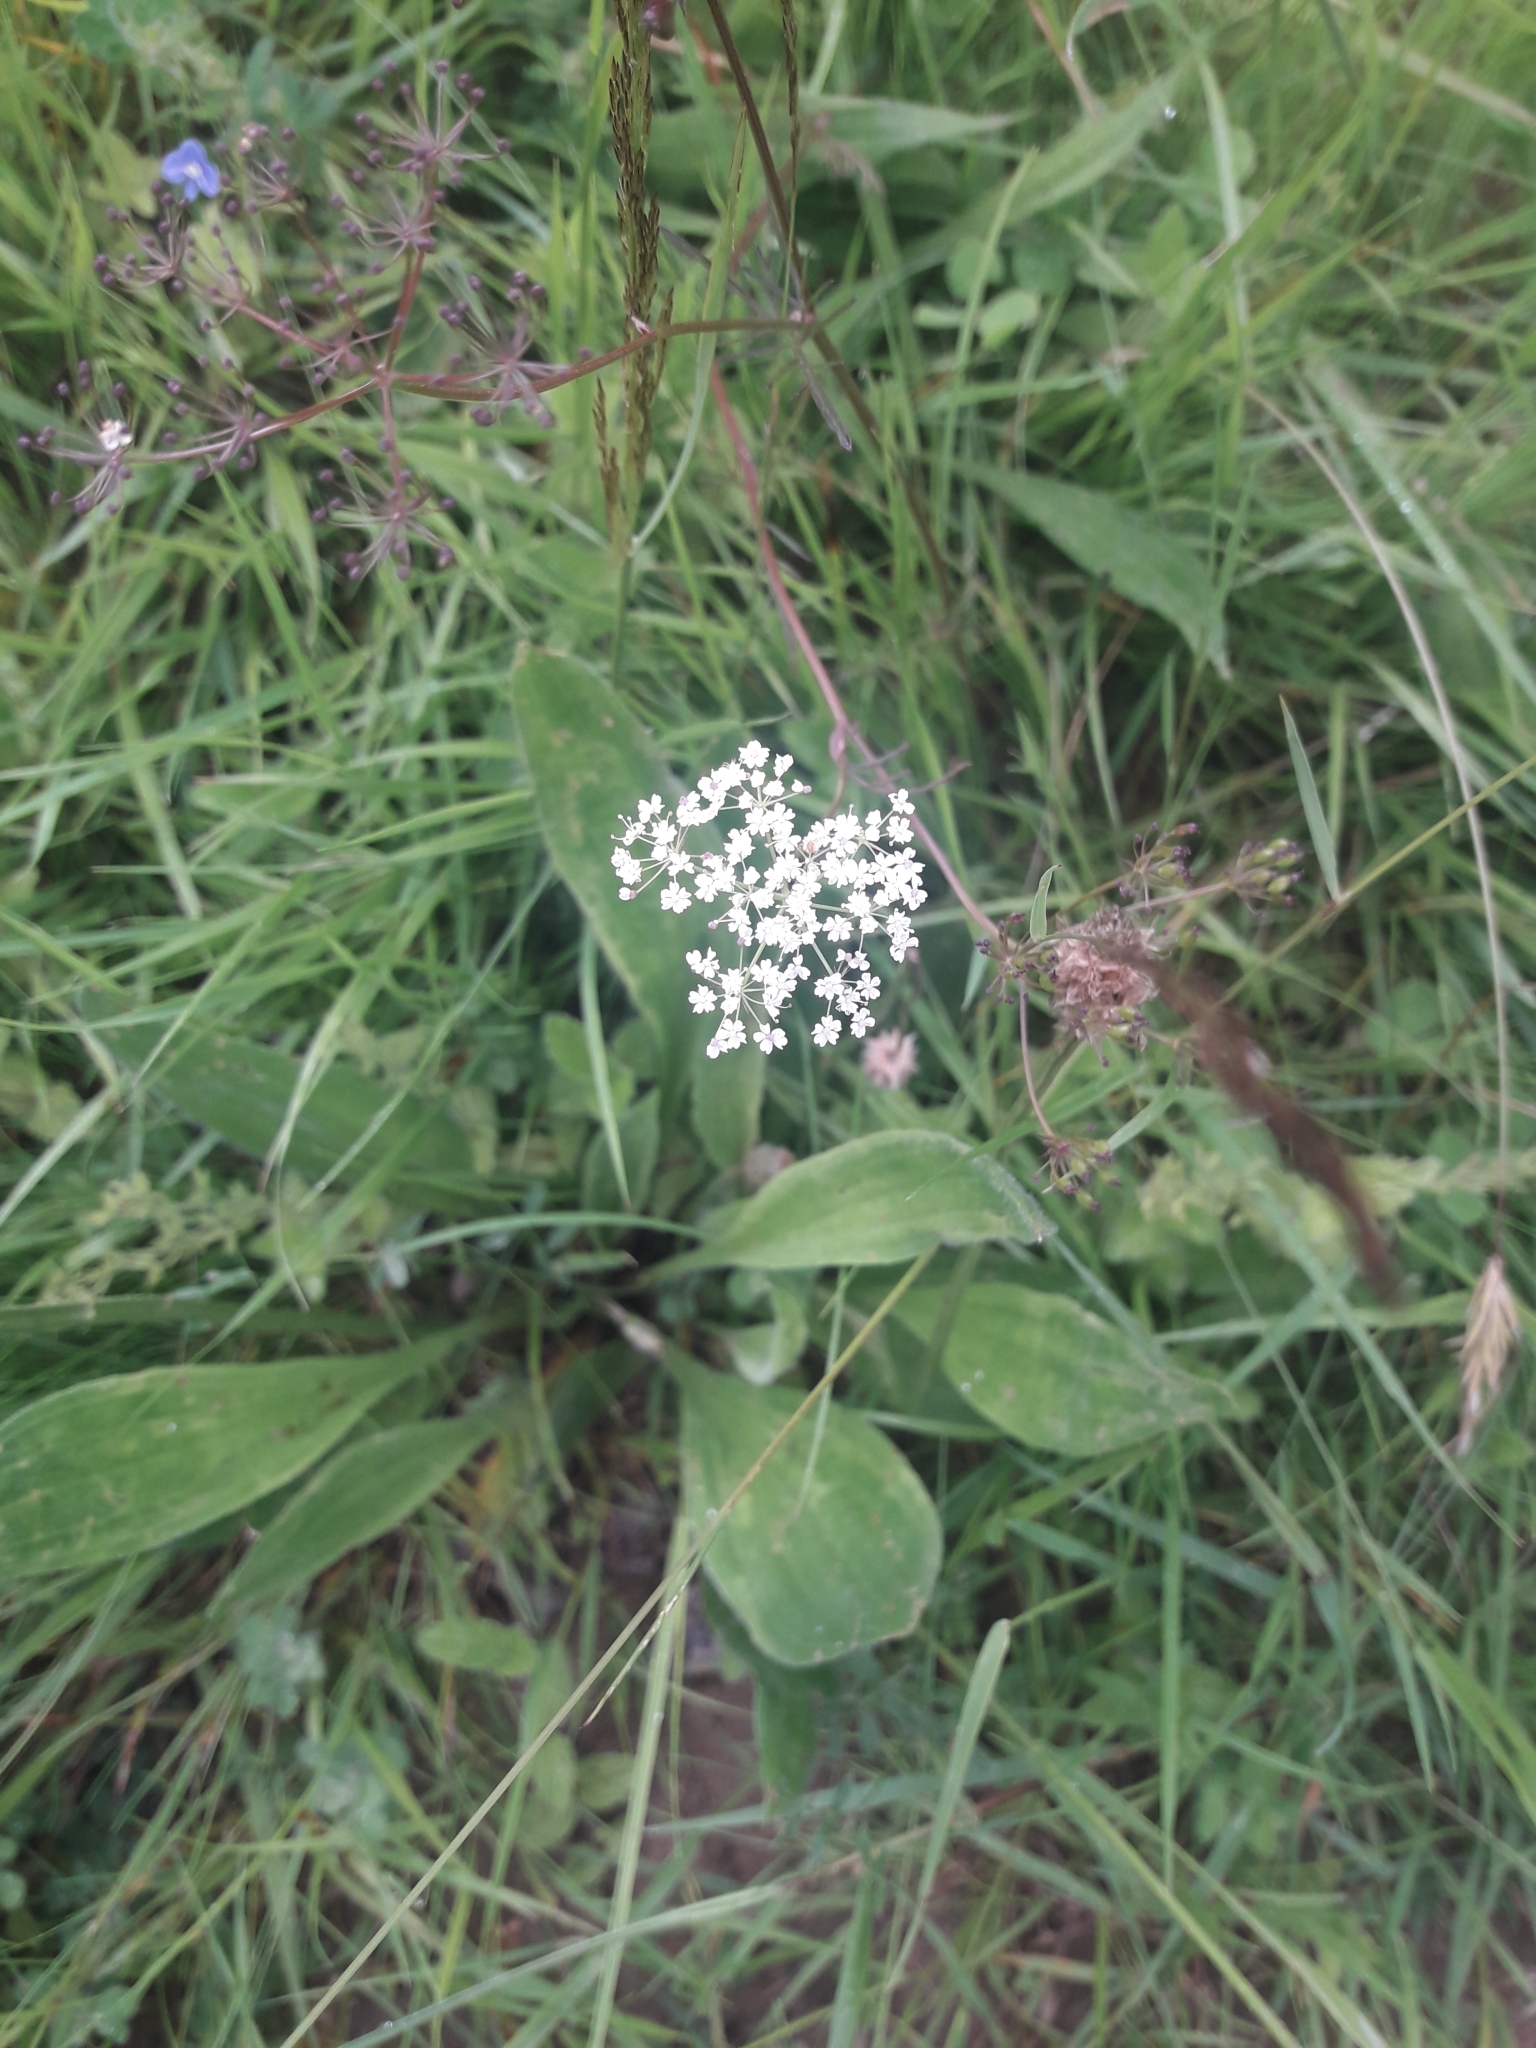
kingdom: Plantae
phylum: Tracheophyta
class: Magnoliopsida
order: Apiales
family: Apiaceae
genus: Conopodium
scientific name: Conopodium majus
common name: Pignut
